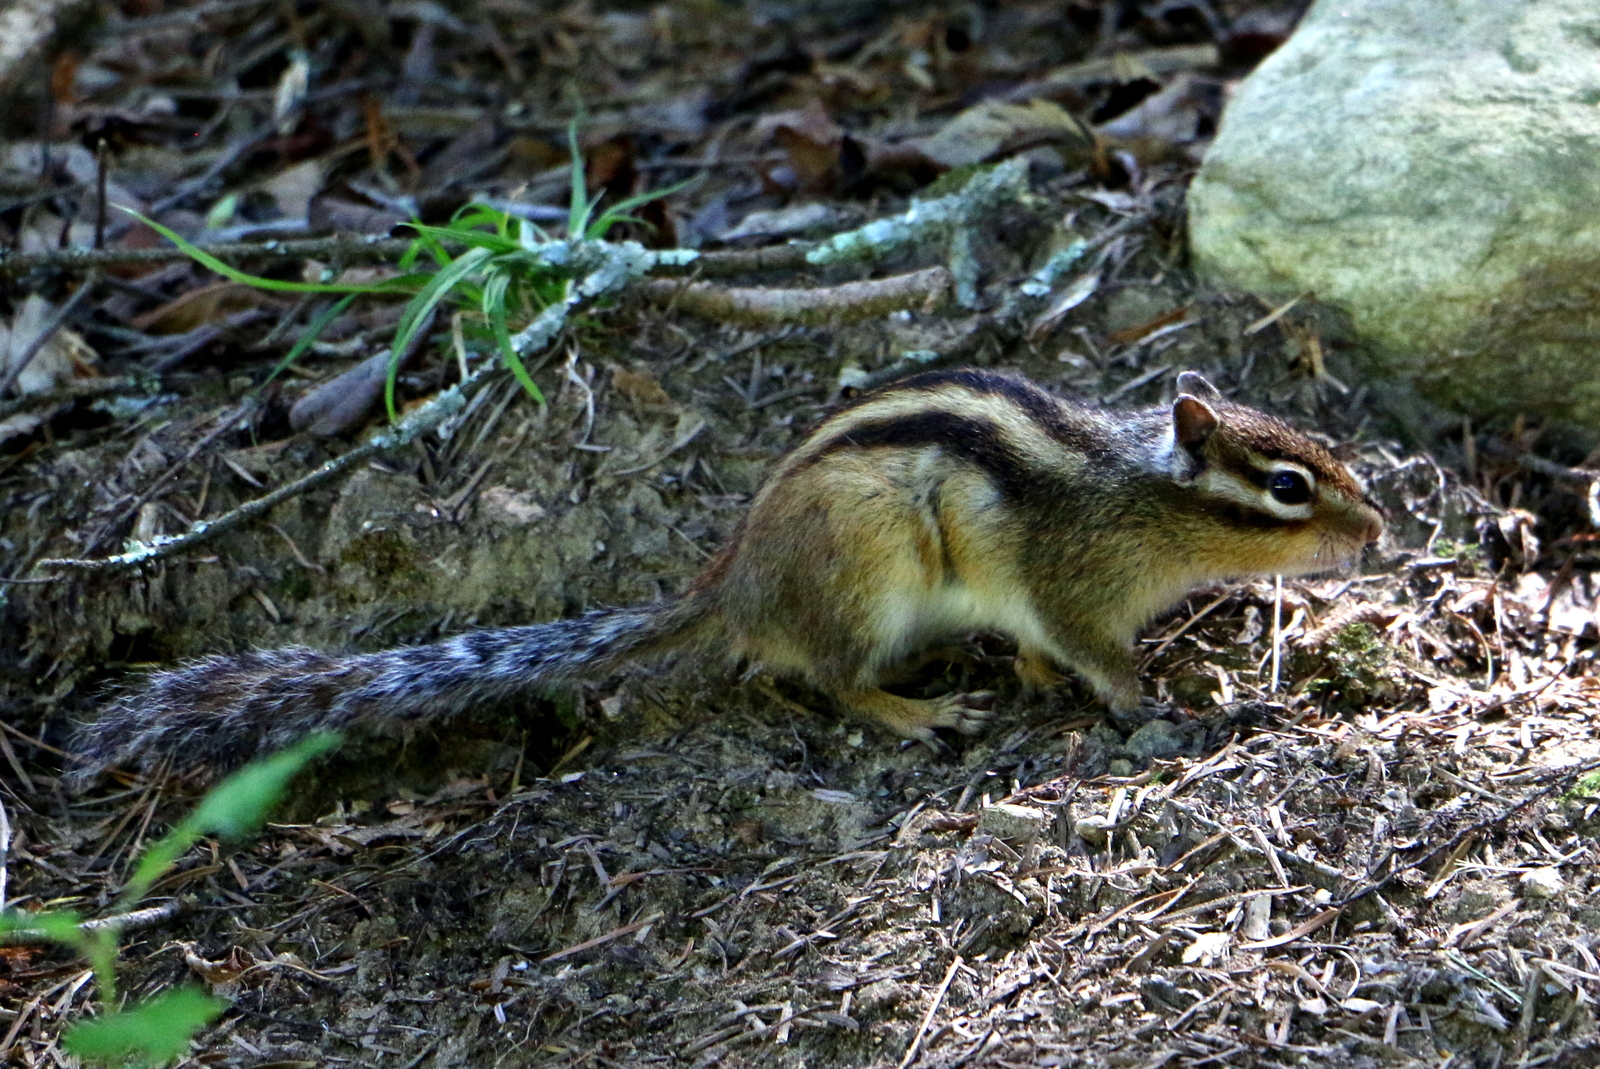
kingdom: Animalia
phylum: Chordata
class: Mammalia
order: Rodentia
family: Sciuridae
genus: Tamias
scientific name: Tamias sibiricus
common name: Siberian chipmunk
